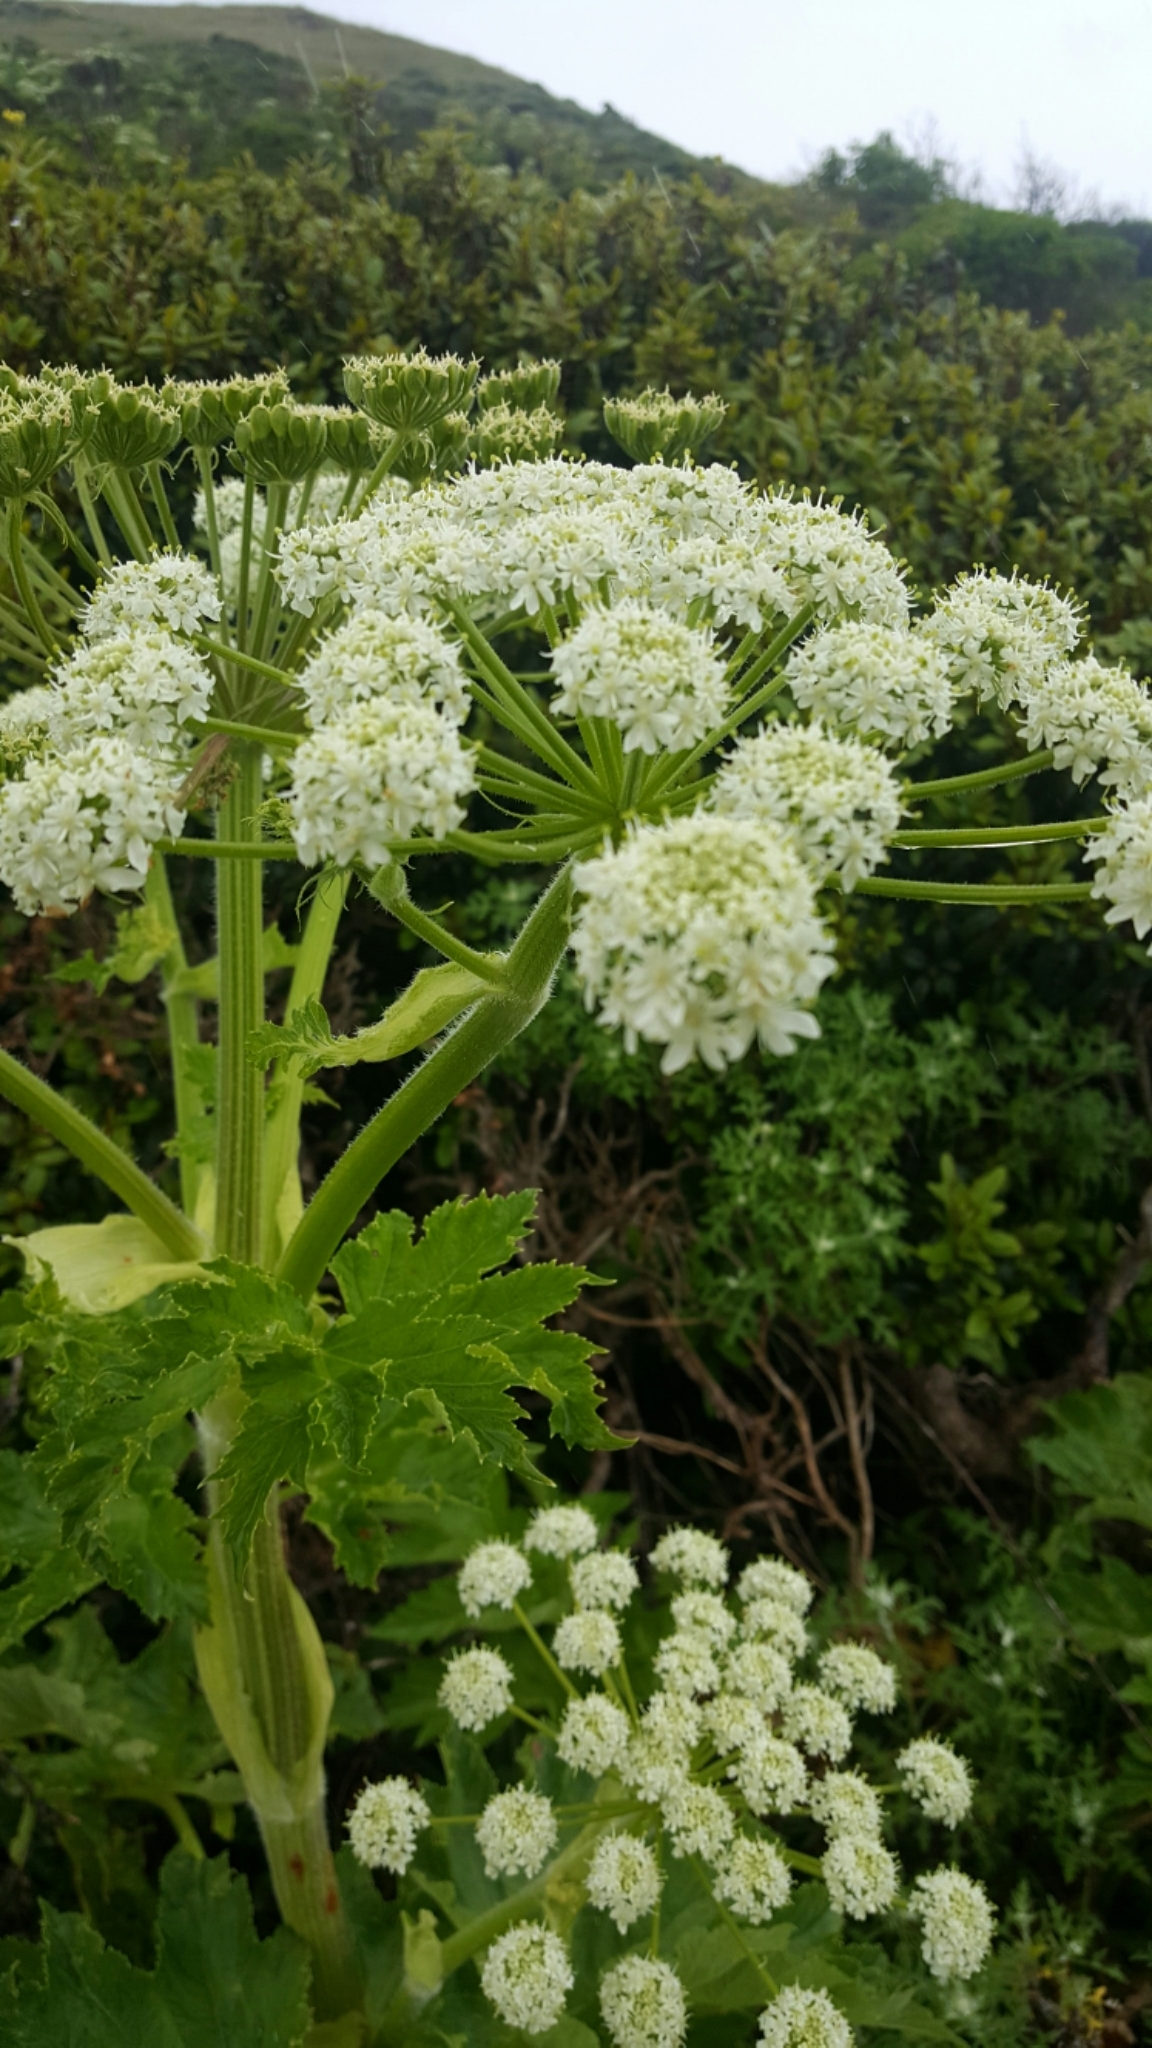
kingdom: Plantae
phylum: Tracheophyta
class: Magnoliopsida
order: Apiales
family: Apiaceae
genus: Heracleum
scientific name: Heracleum maximum
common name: American cow parsnip
